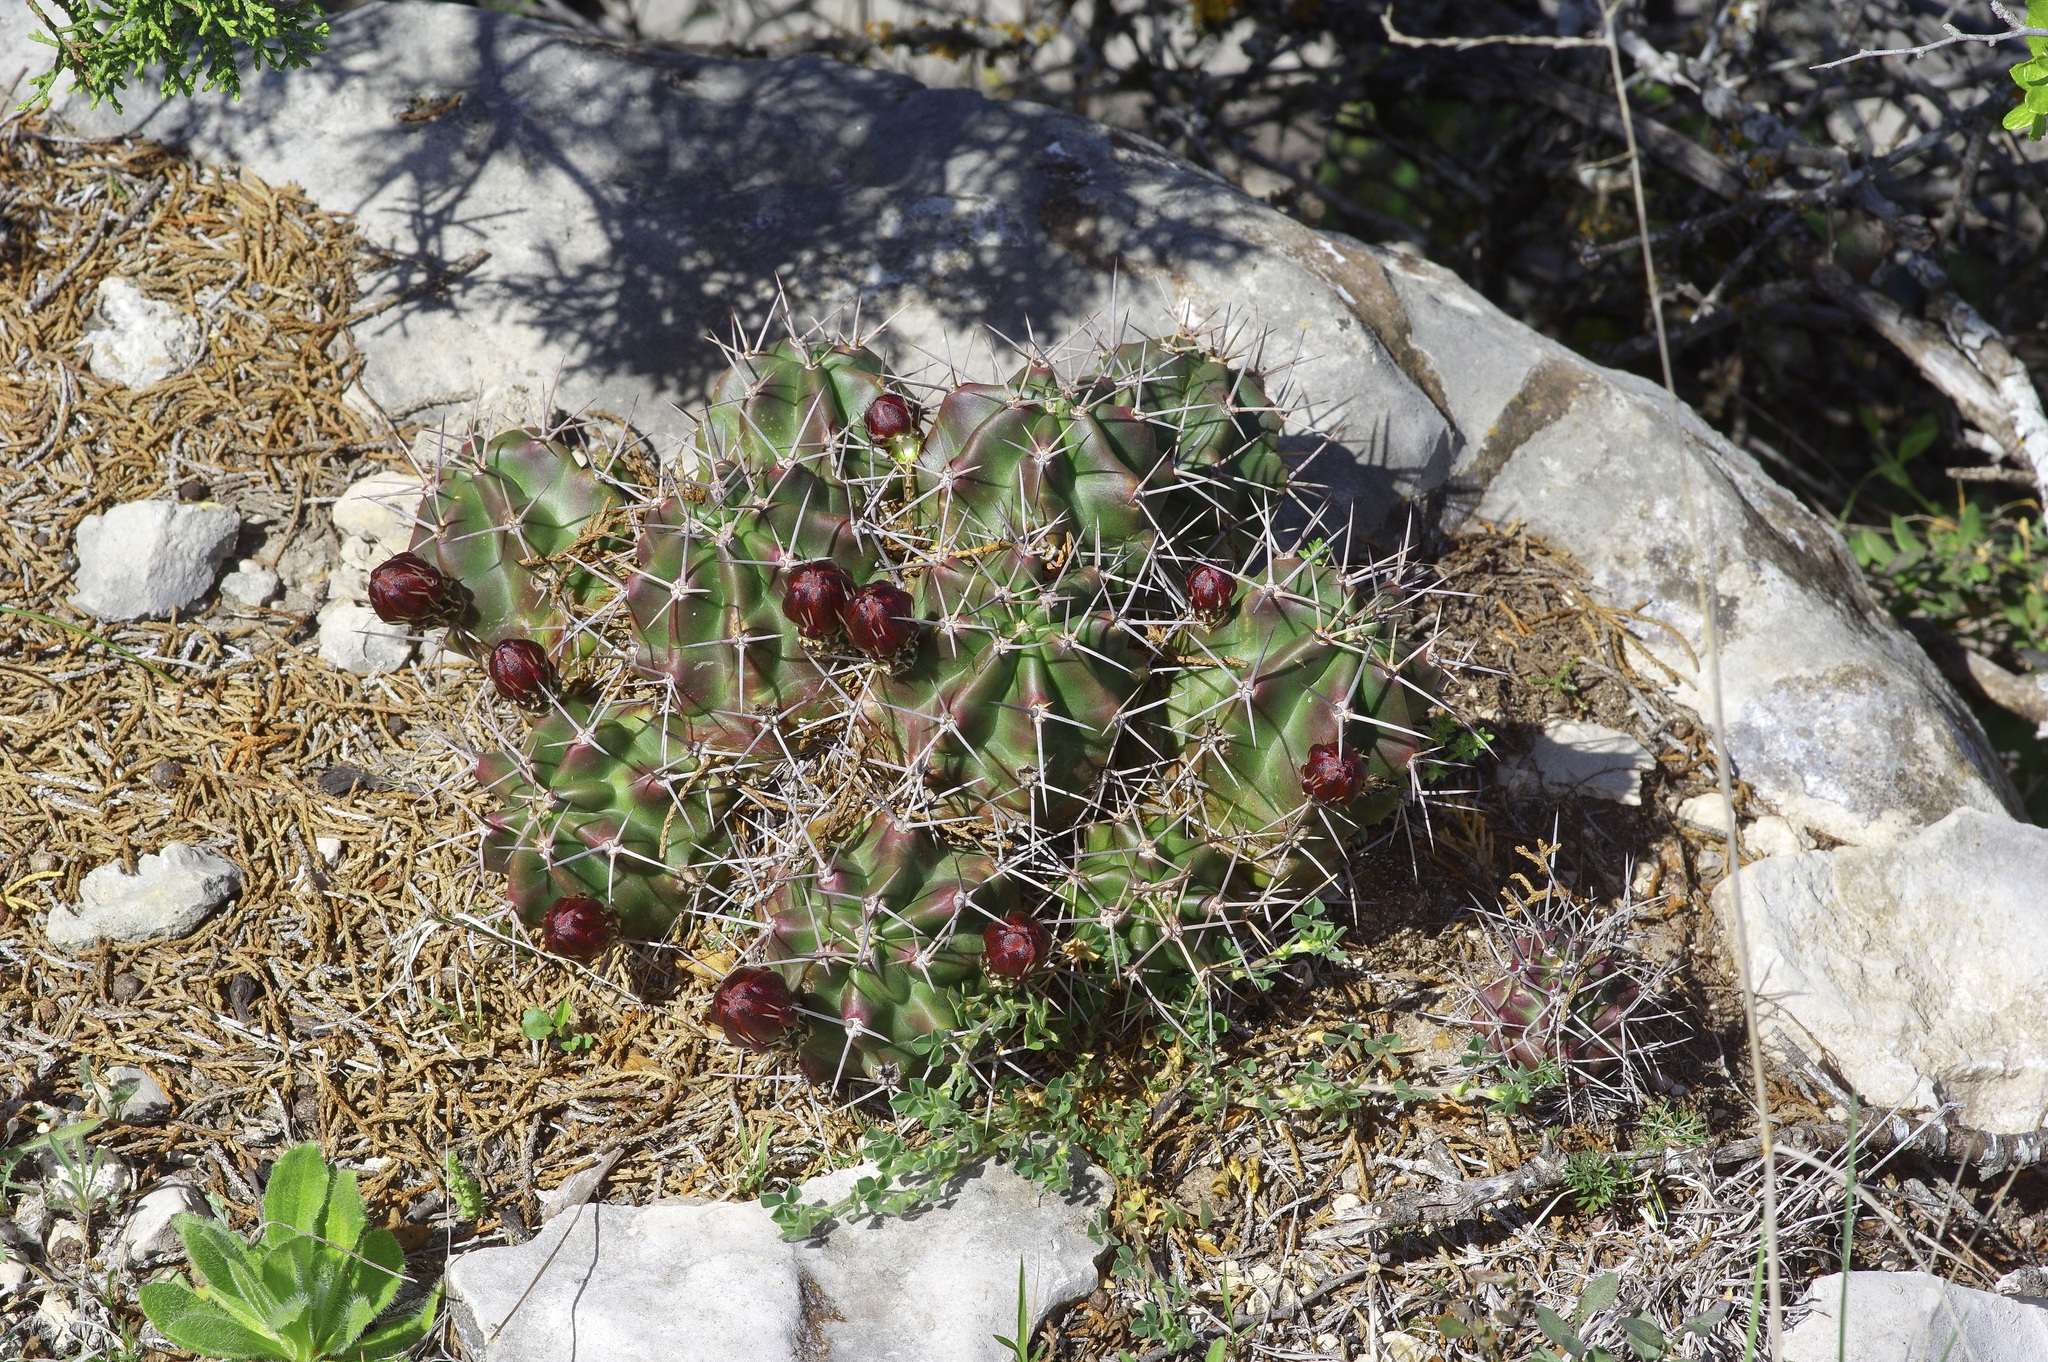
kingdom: Plantae
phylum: Tracheophyta
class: Magnoliopsida
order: Caryophyllales
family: Cactaceae
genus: Echinocereus
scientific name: Echinocereus coccineus
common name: Scarlet hedgehog cactus
